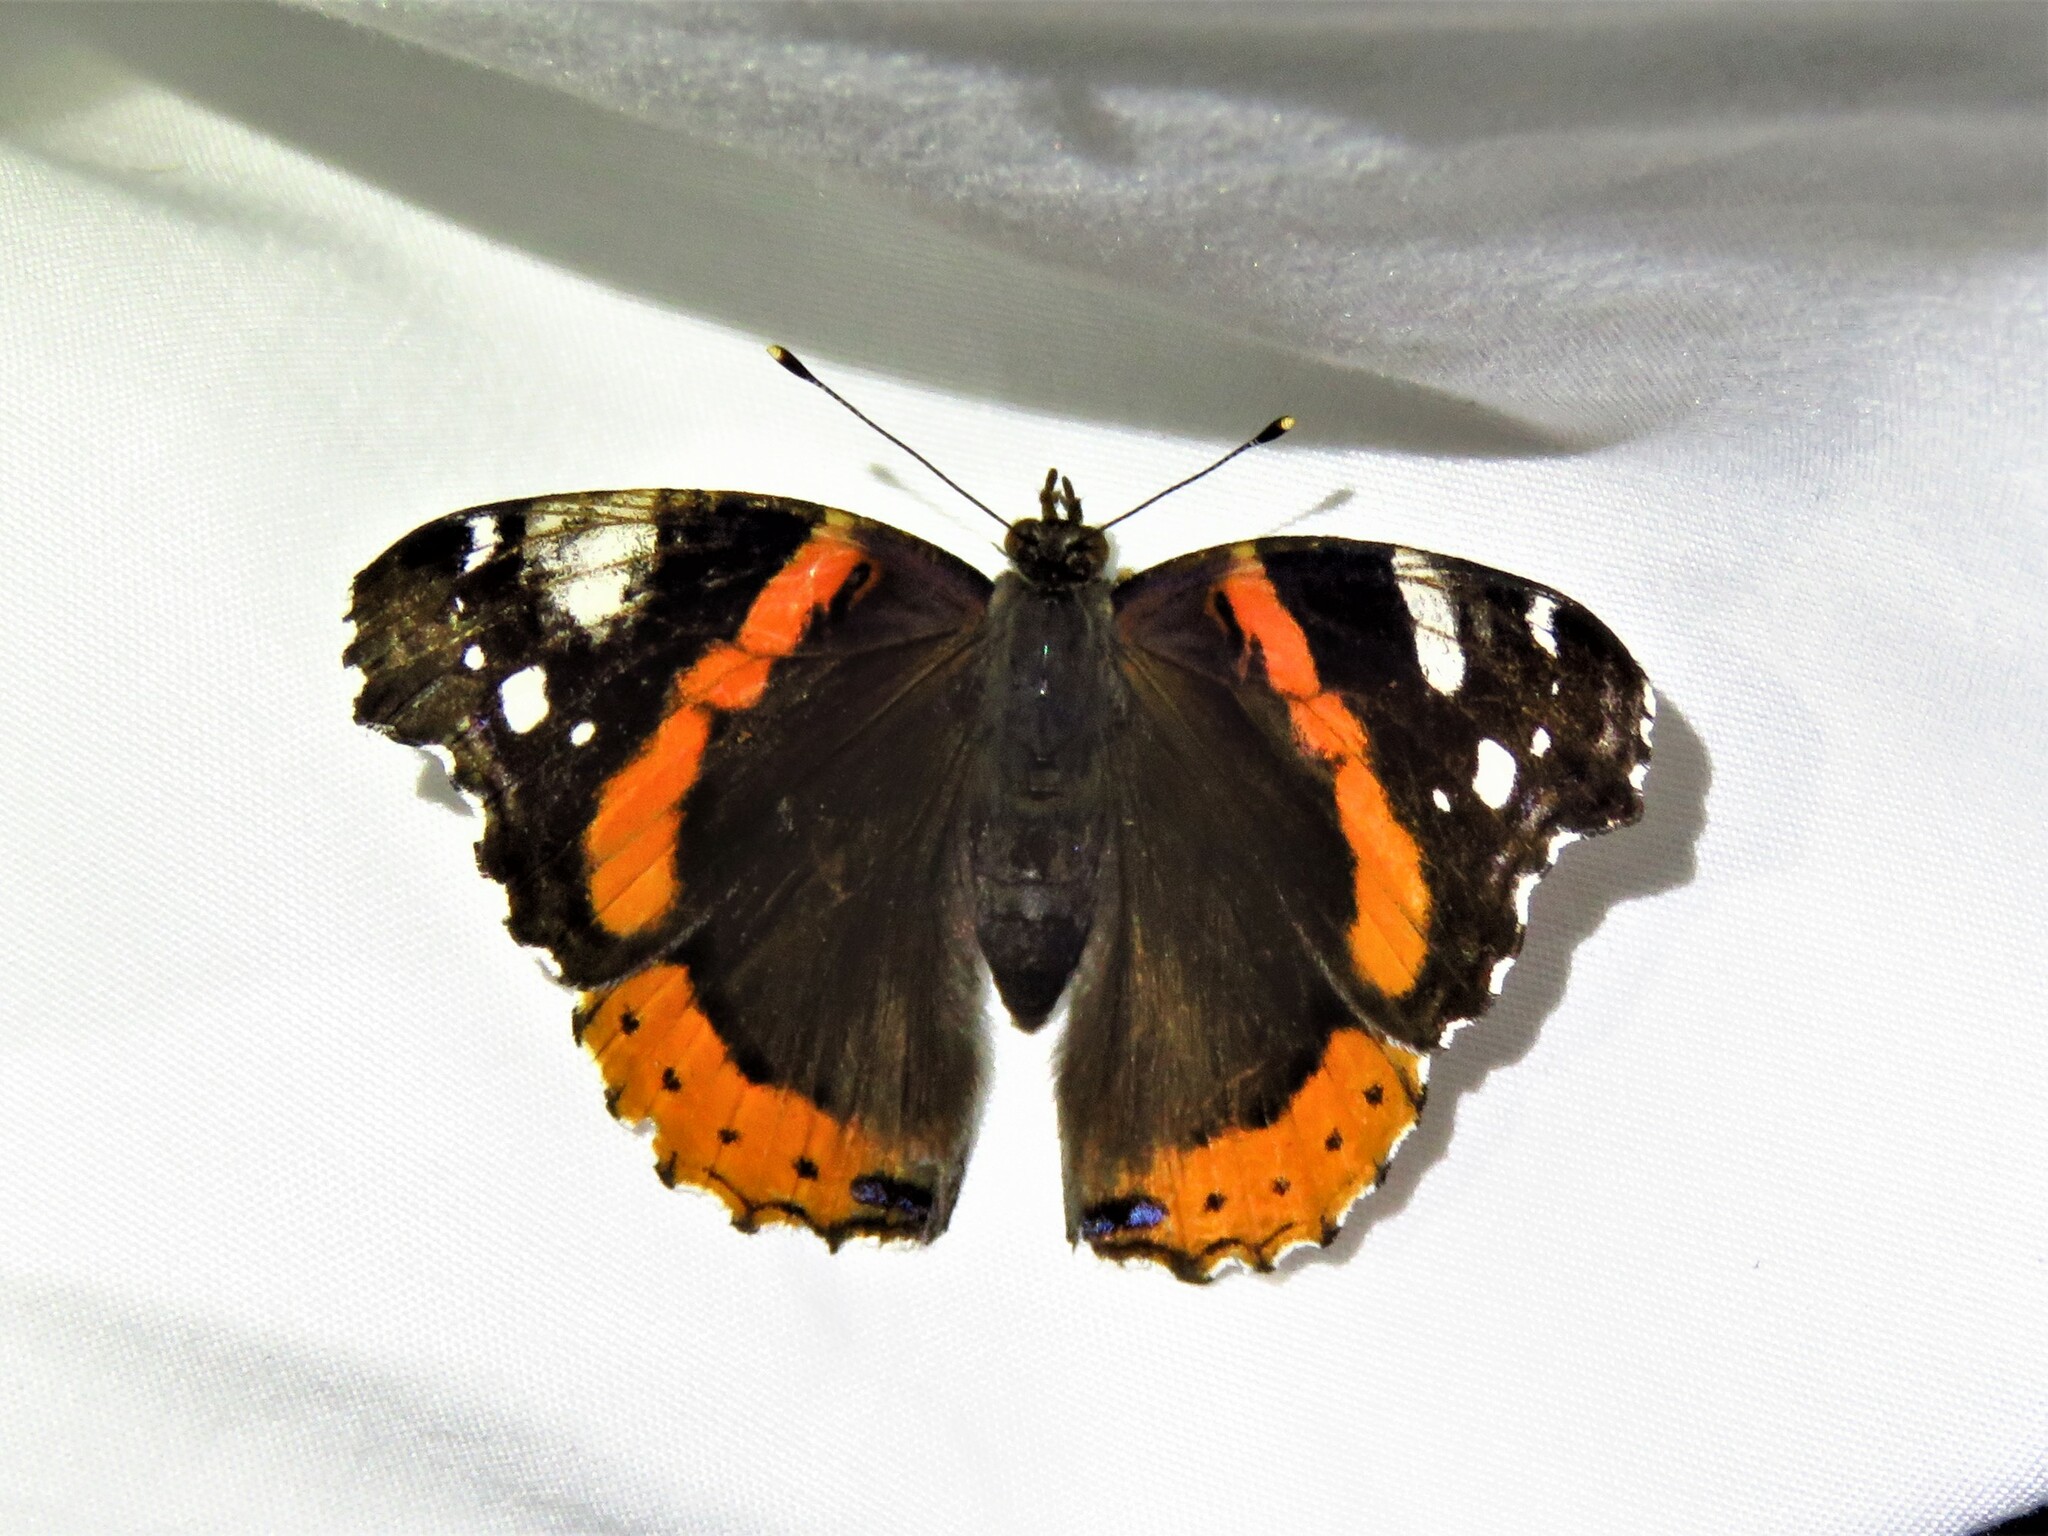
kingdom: Animalia
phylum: Arthropoda
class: Insecta
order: Lepidoptera
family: Nymphalidae
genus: Vanessa
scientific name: Vanessa atalanta
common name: Red admiral
